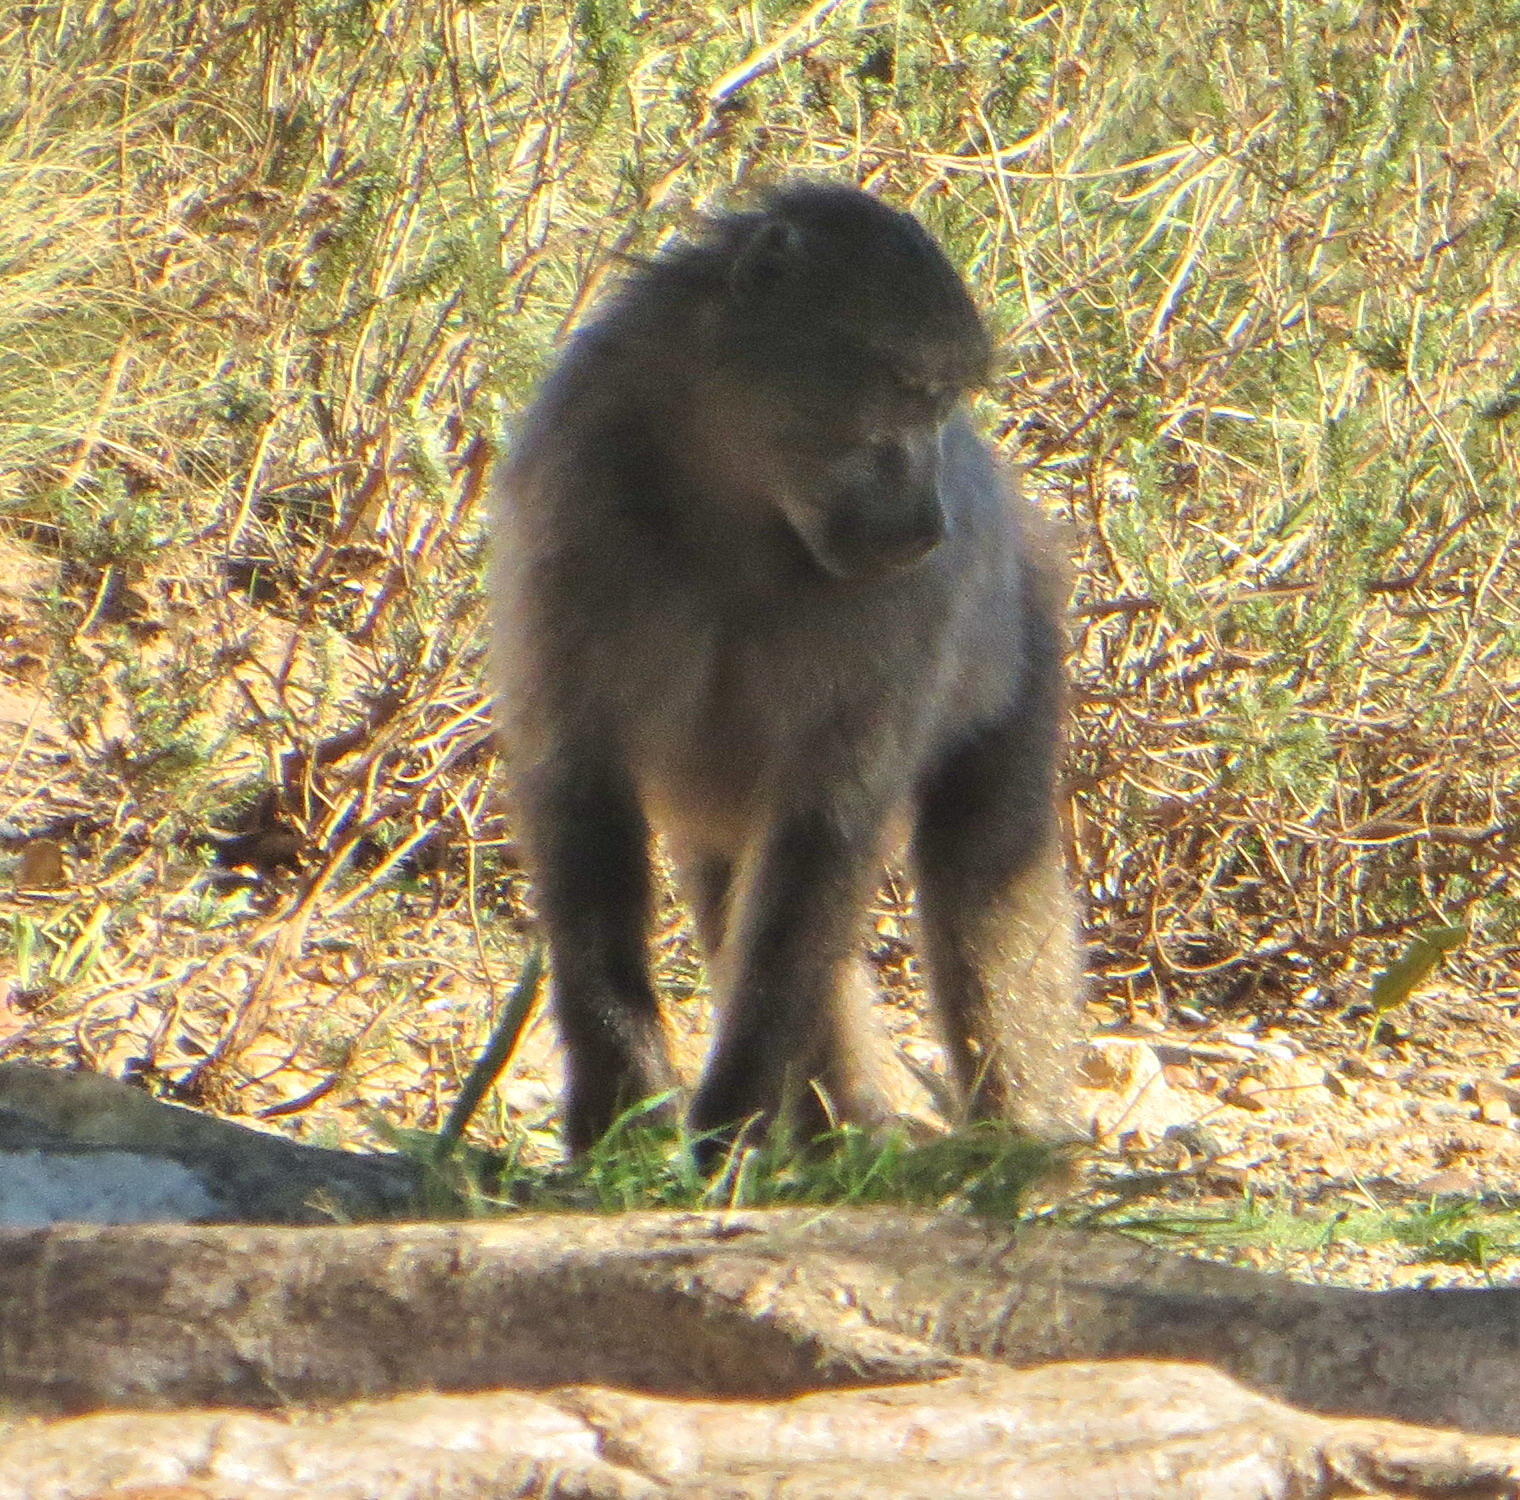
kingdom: Animalia
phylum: Chordata
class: Mammalia
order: Primates
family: Cercopithecidae
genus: Papio
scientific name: Papio ursinus
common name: Chacma baboon
